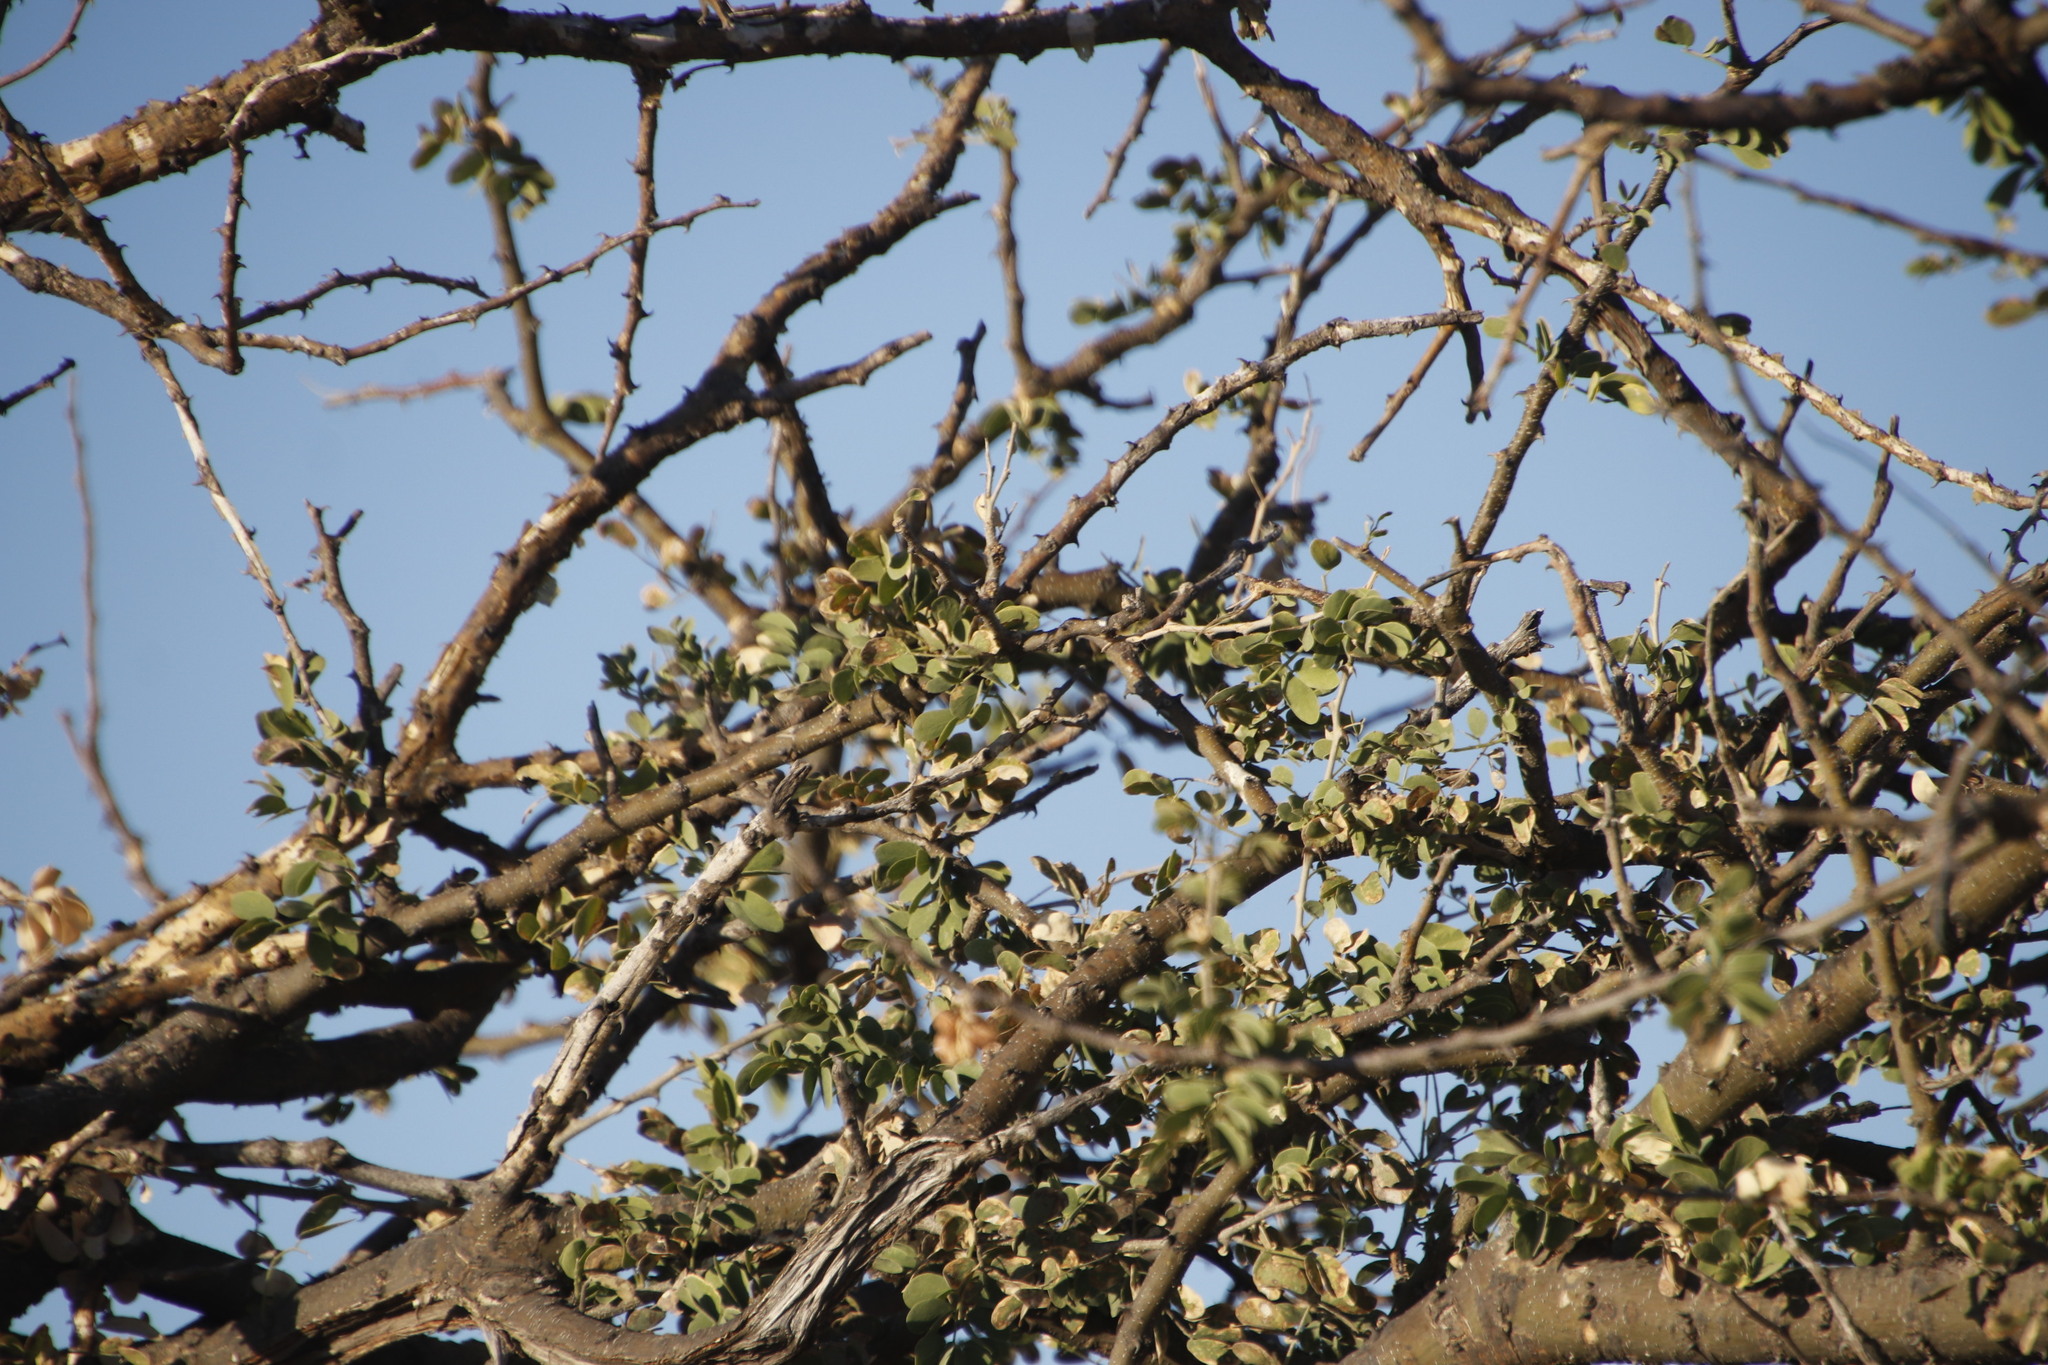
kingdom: Plantae
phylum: Tracheophyta
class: Magnoliopsida
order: Fabales
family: Fabaceae
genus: Senegalia
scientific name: Senegalia mellifera
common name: Hookthorn
